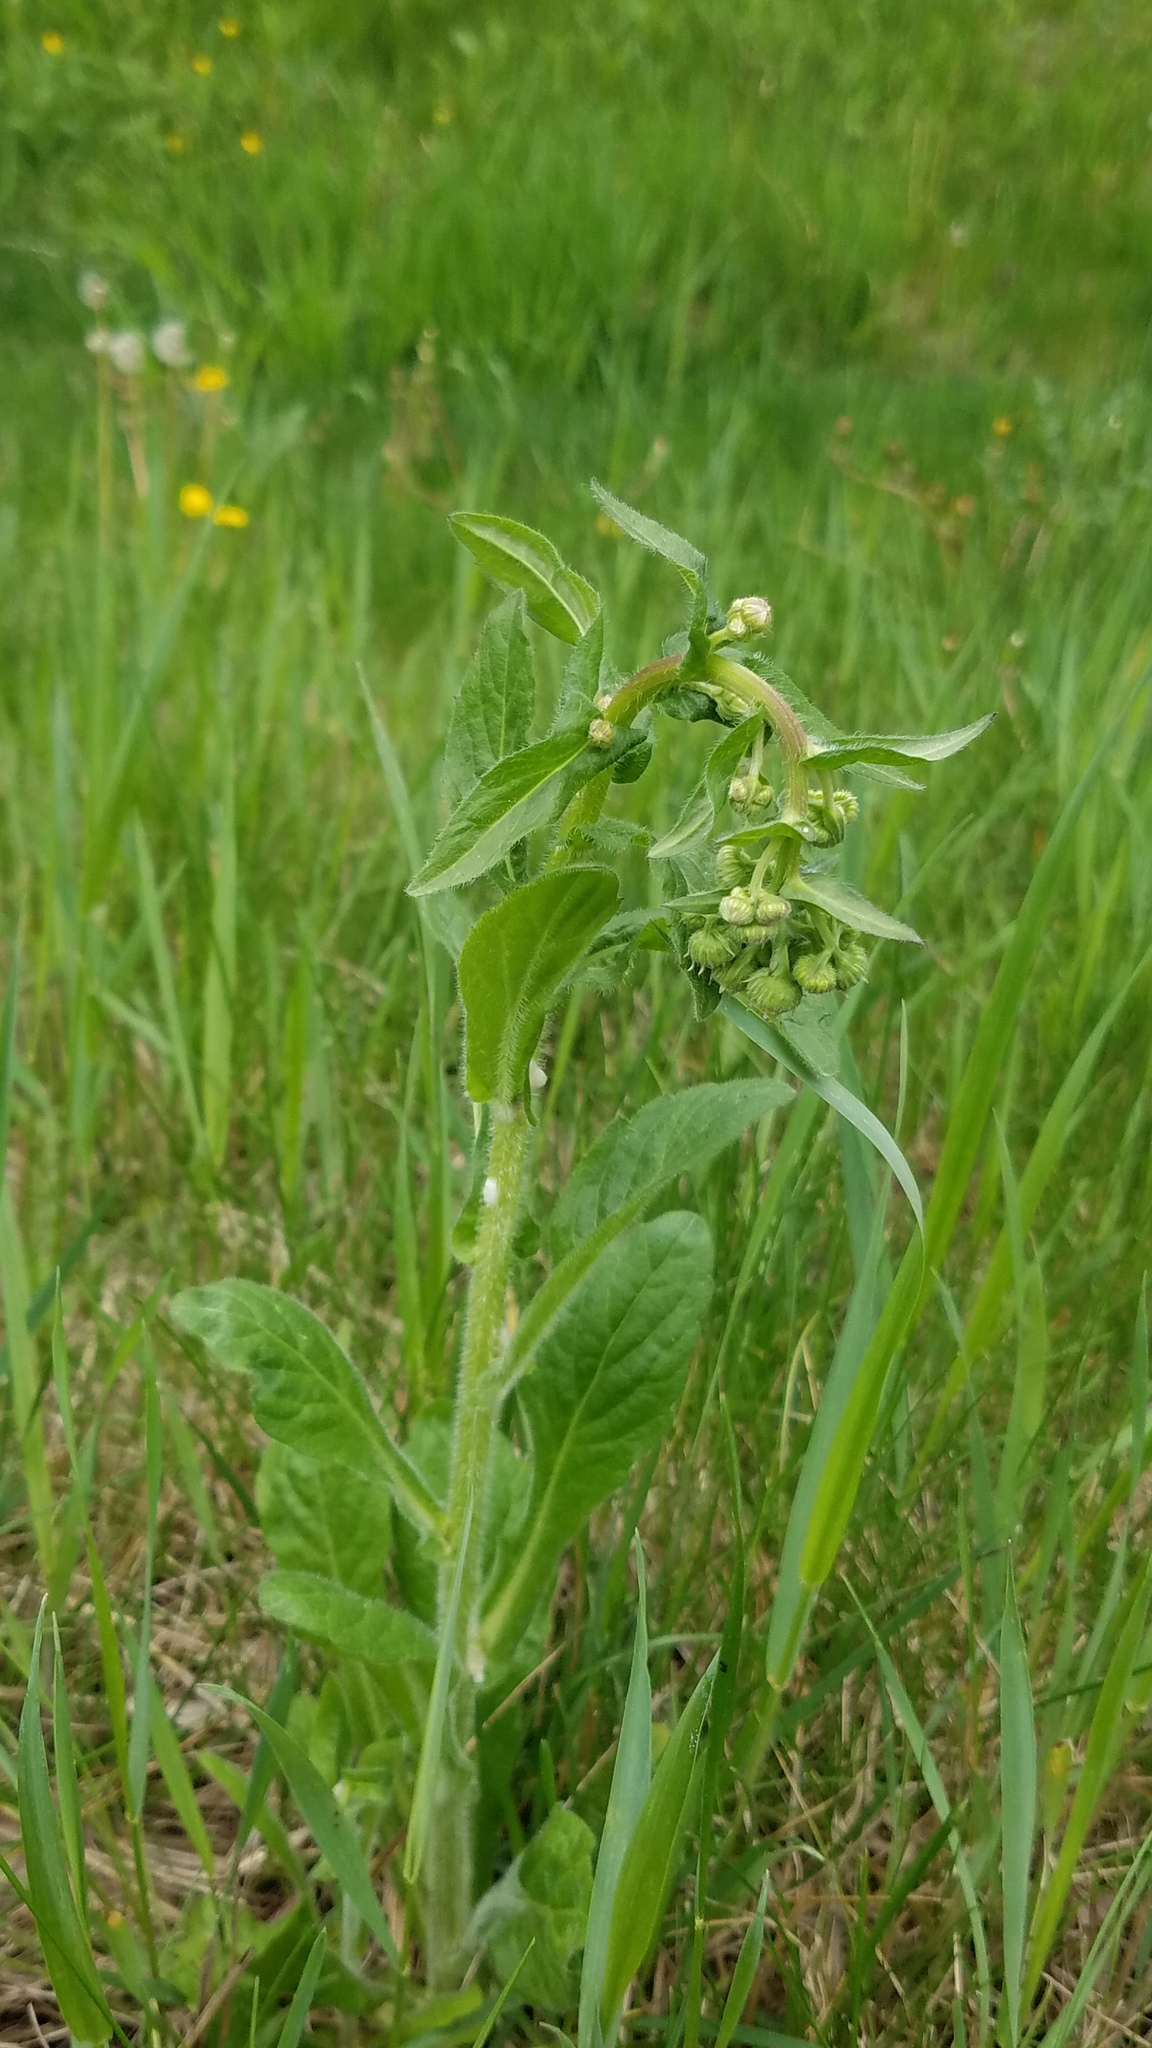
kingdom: Plantae
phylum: Tracheophyta
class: Magnoliopsida
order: Asterales
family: Asteraceae
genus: Erigeron
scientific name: Erigeron philadelphicus
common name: Robin's-plantain
